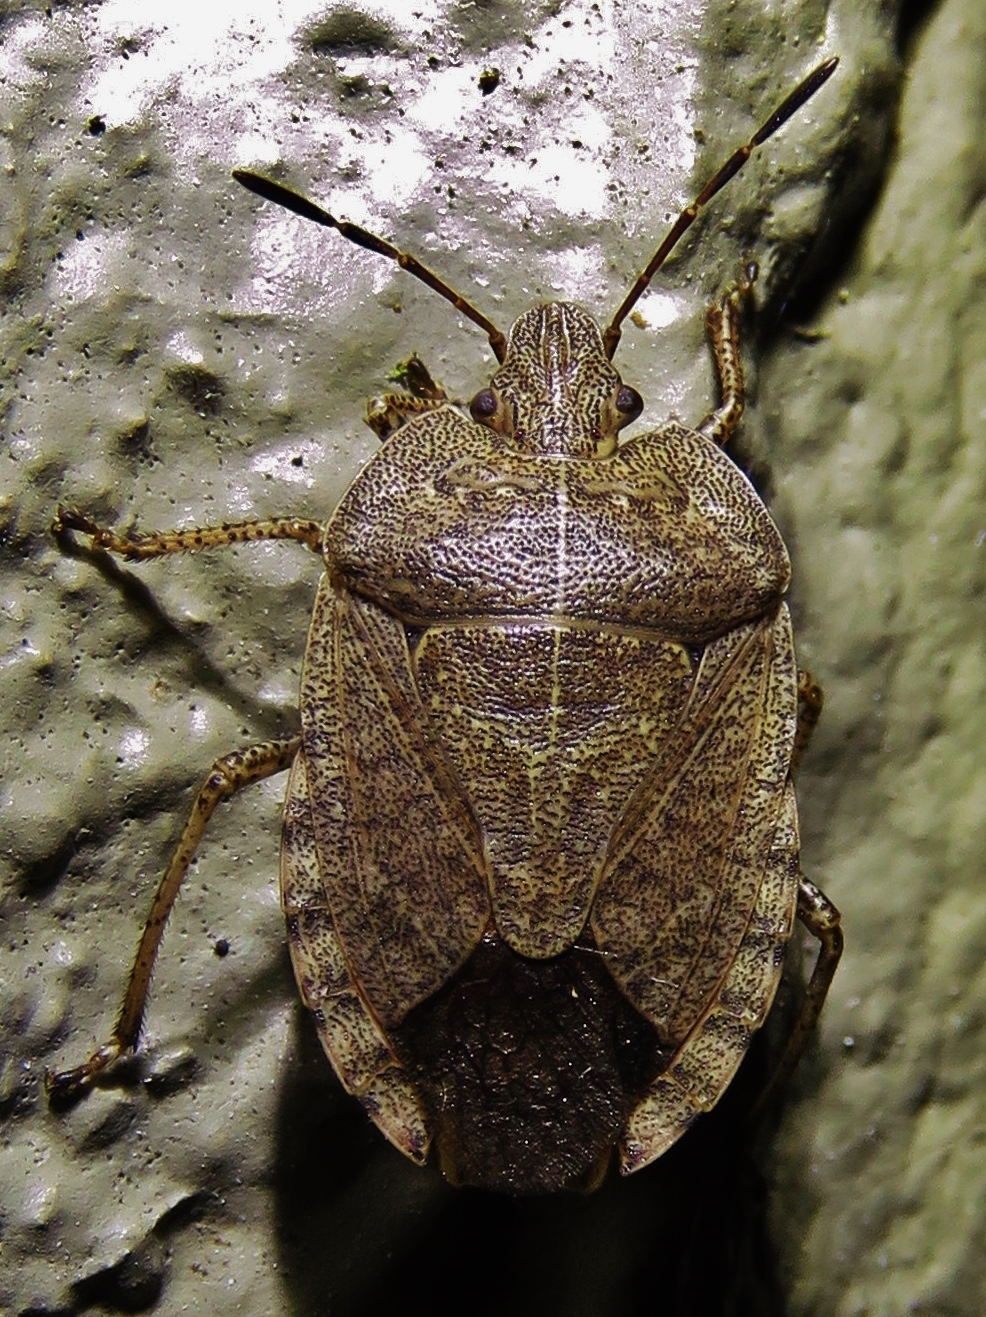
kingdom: Animalia
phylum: Arthropoda
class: Insecta
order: Hemiptera
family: Pentatomidae
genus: Menecles
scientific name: Menecles insertus
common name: Elf shoe stink bug
